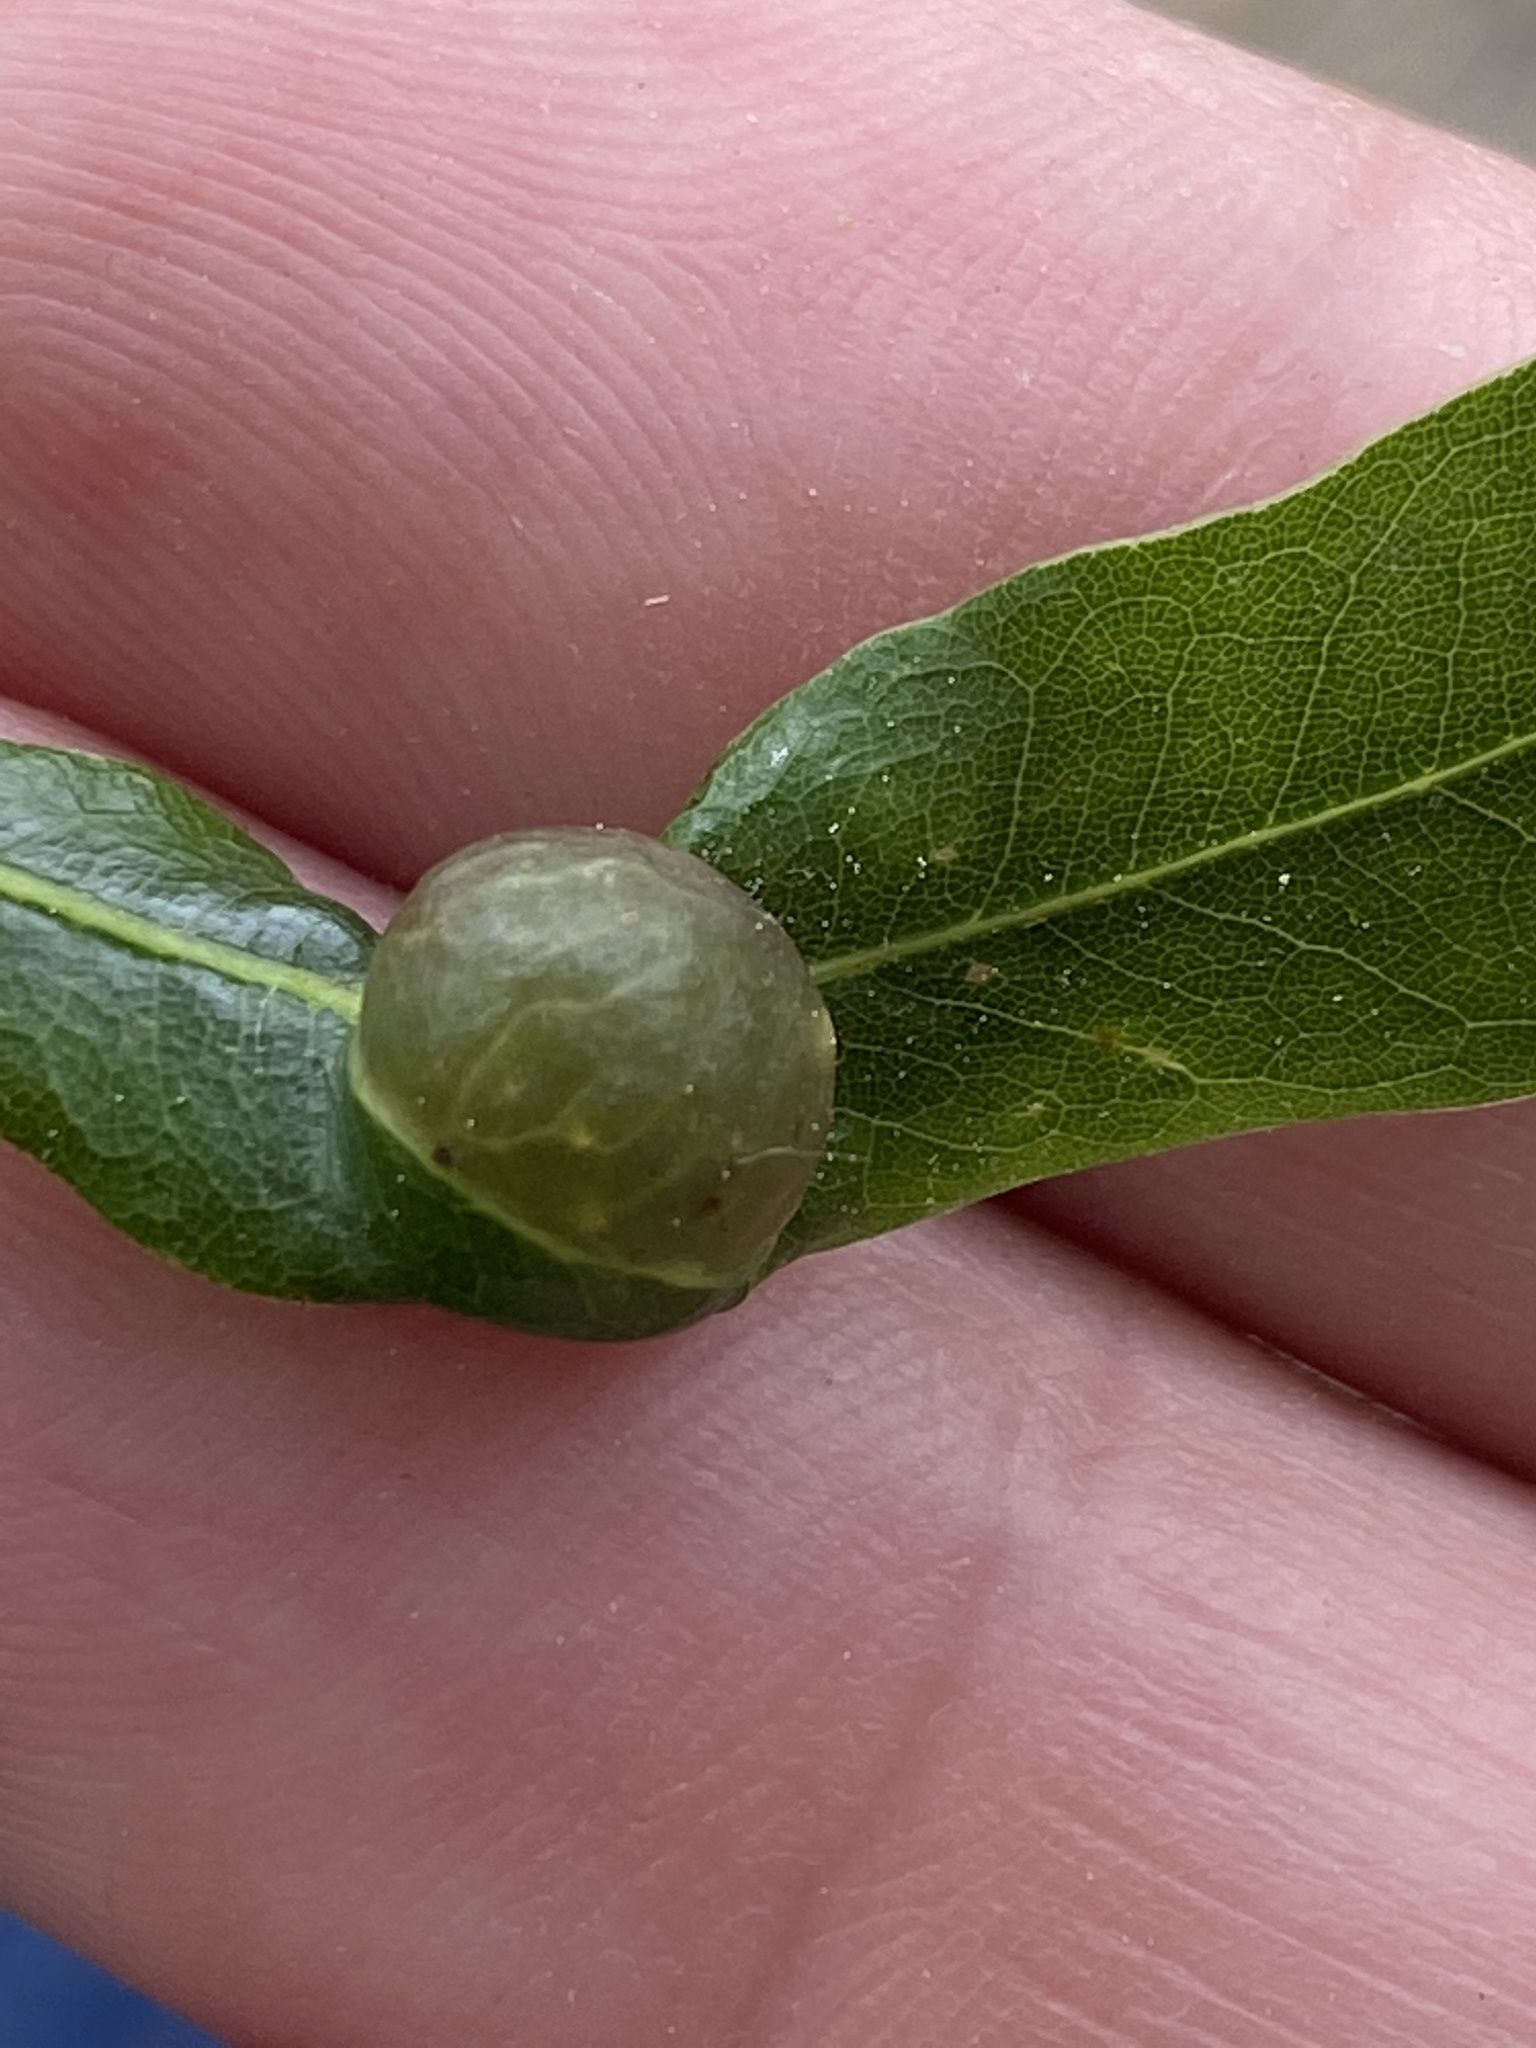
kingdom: Animalia
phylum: Arthropoda
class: Insecta
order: Hymenoptera
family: Cynipidae
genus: Dryocosmus
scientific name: Dryocosmus
